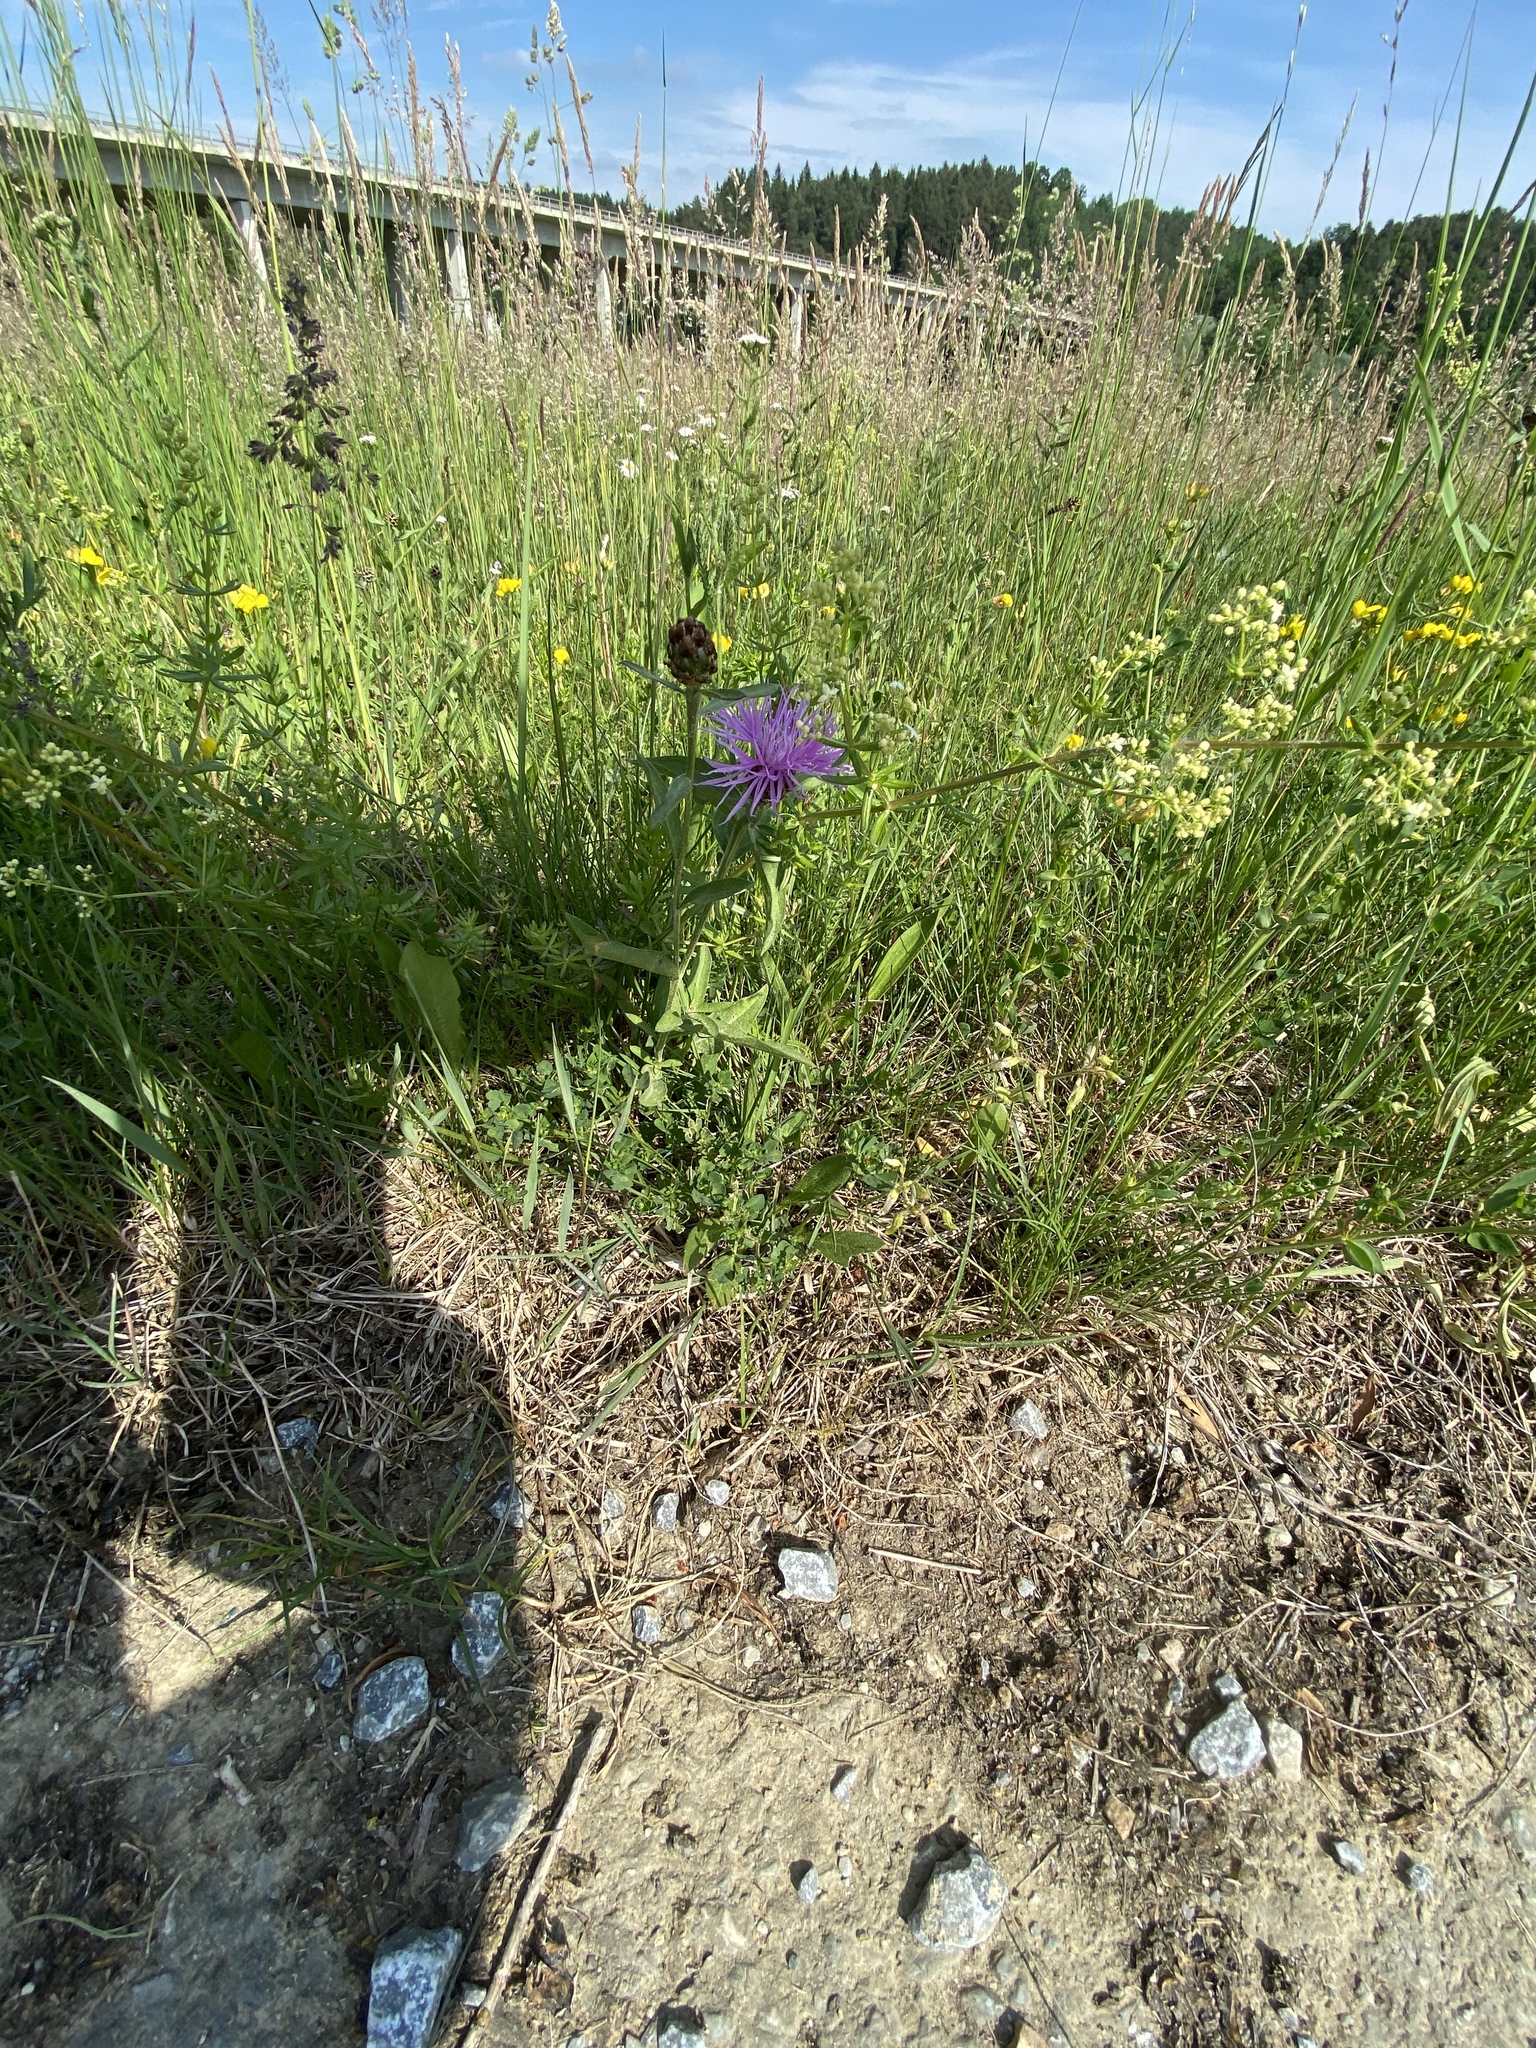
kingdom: Plantae
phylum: Tracheophyta
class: Magnoliopsida
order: Asterales
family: Asteraceae
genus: Centaurea
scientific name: Centaurea jacea
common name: Brown knapweed
